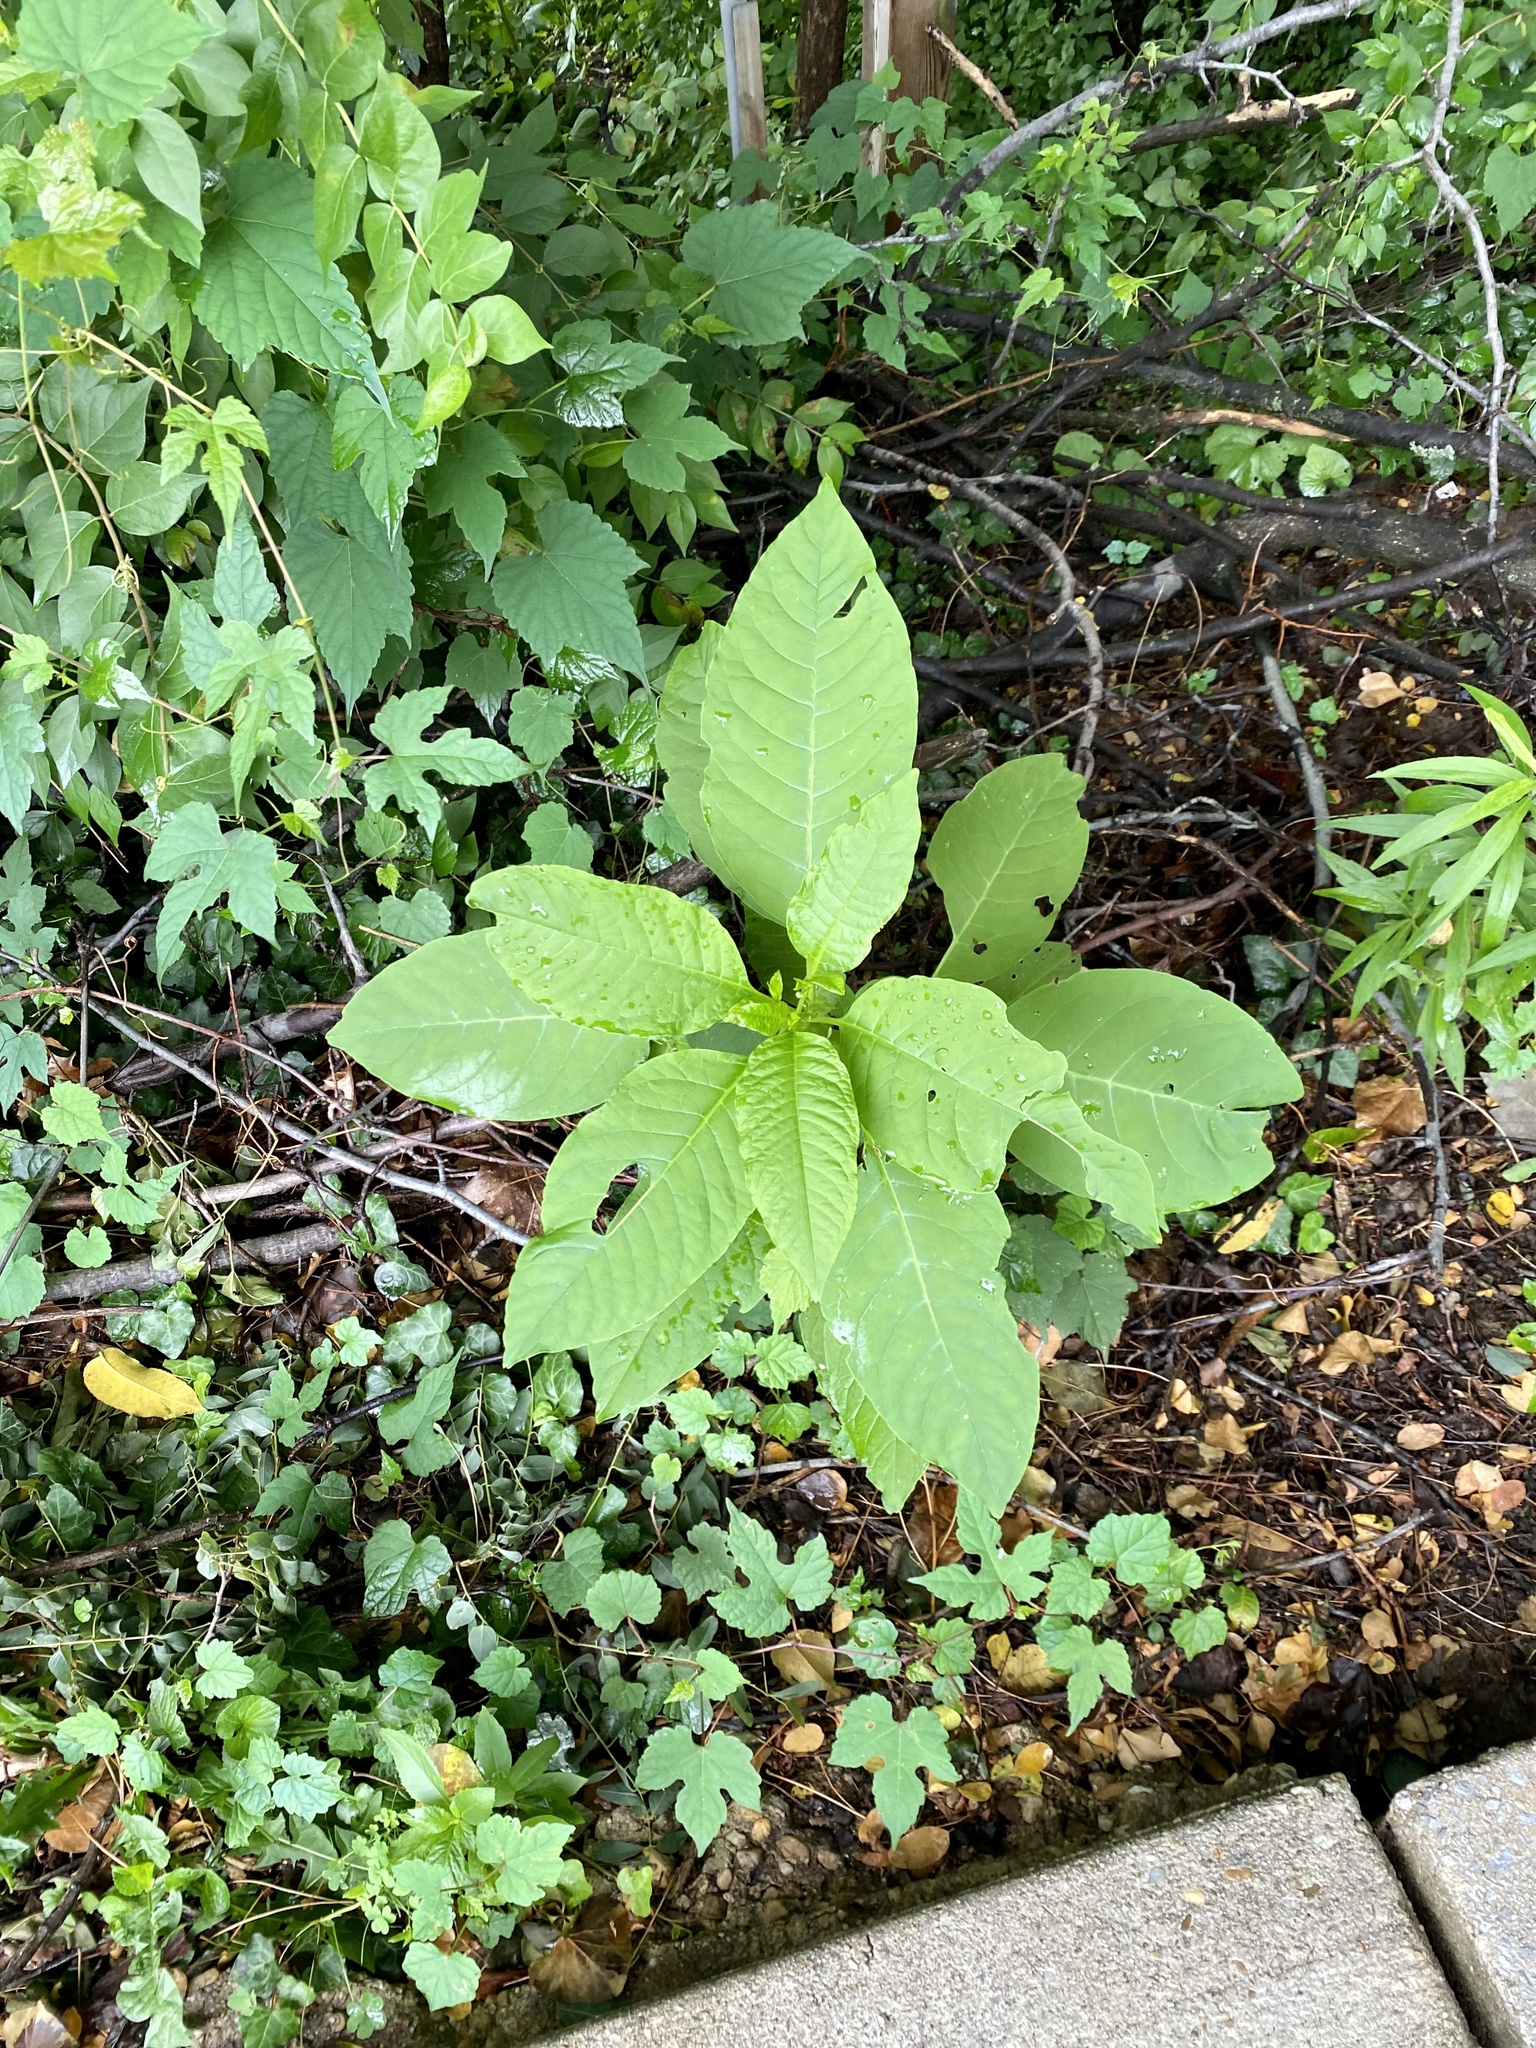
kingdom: Plantae
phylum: Tracheophyta
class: Magnoliopsida
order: Caryophyllales
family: Phytolaccaceae
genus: Phytolacca
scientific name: Phytolacca americana
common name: American pokeweed
